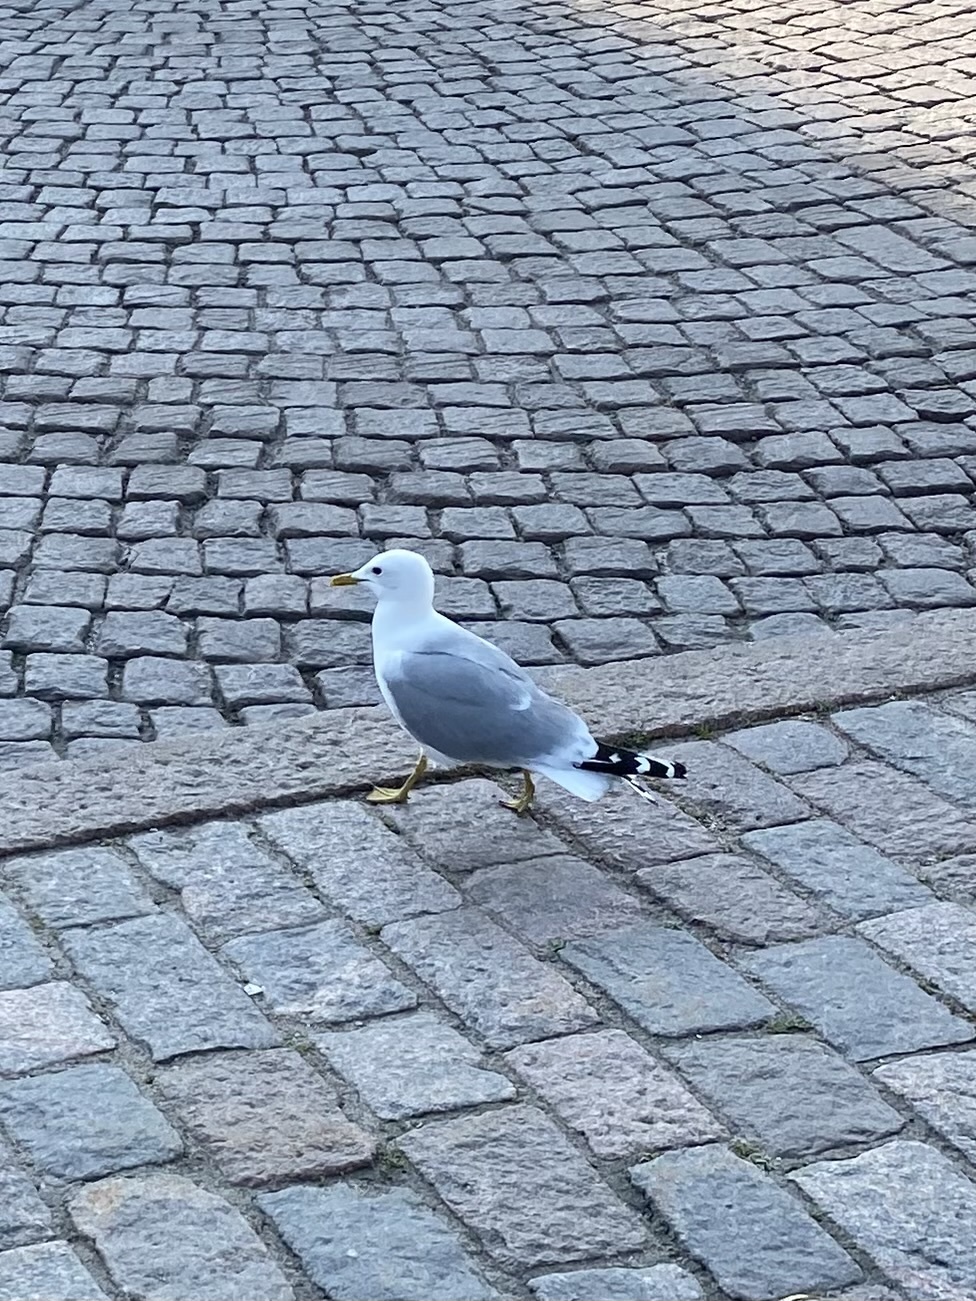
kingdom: Animalia
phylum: Chordata
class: Aves
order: Charadriiformes
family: Laridae
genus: Larus
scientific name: Larus canus
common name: Mew gull
